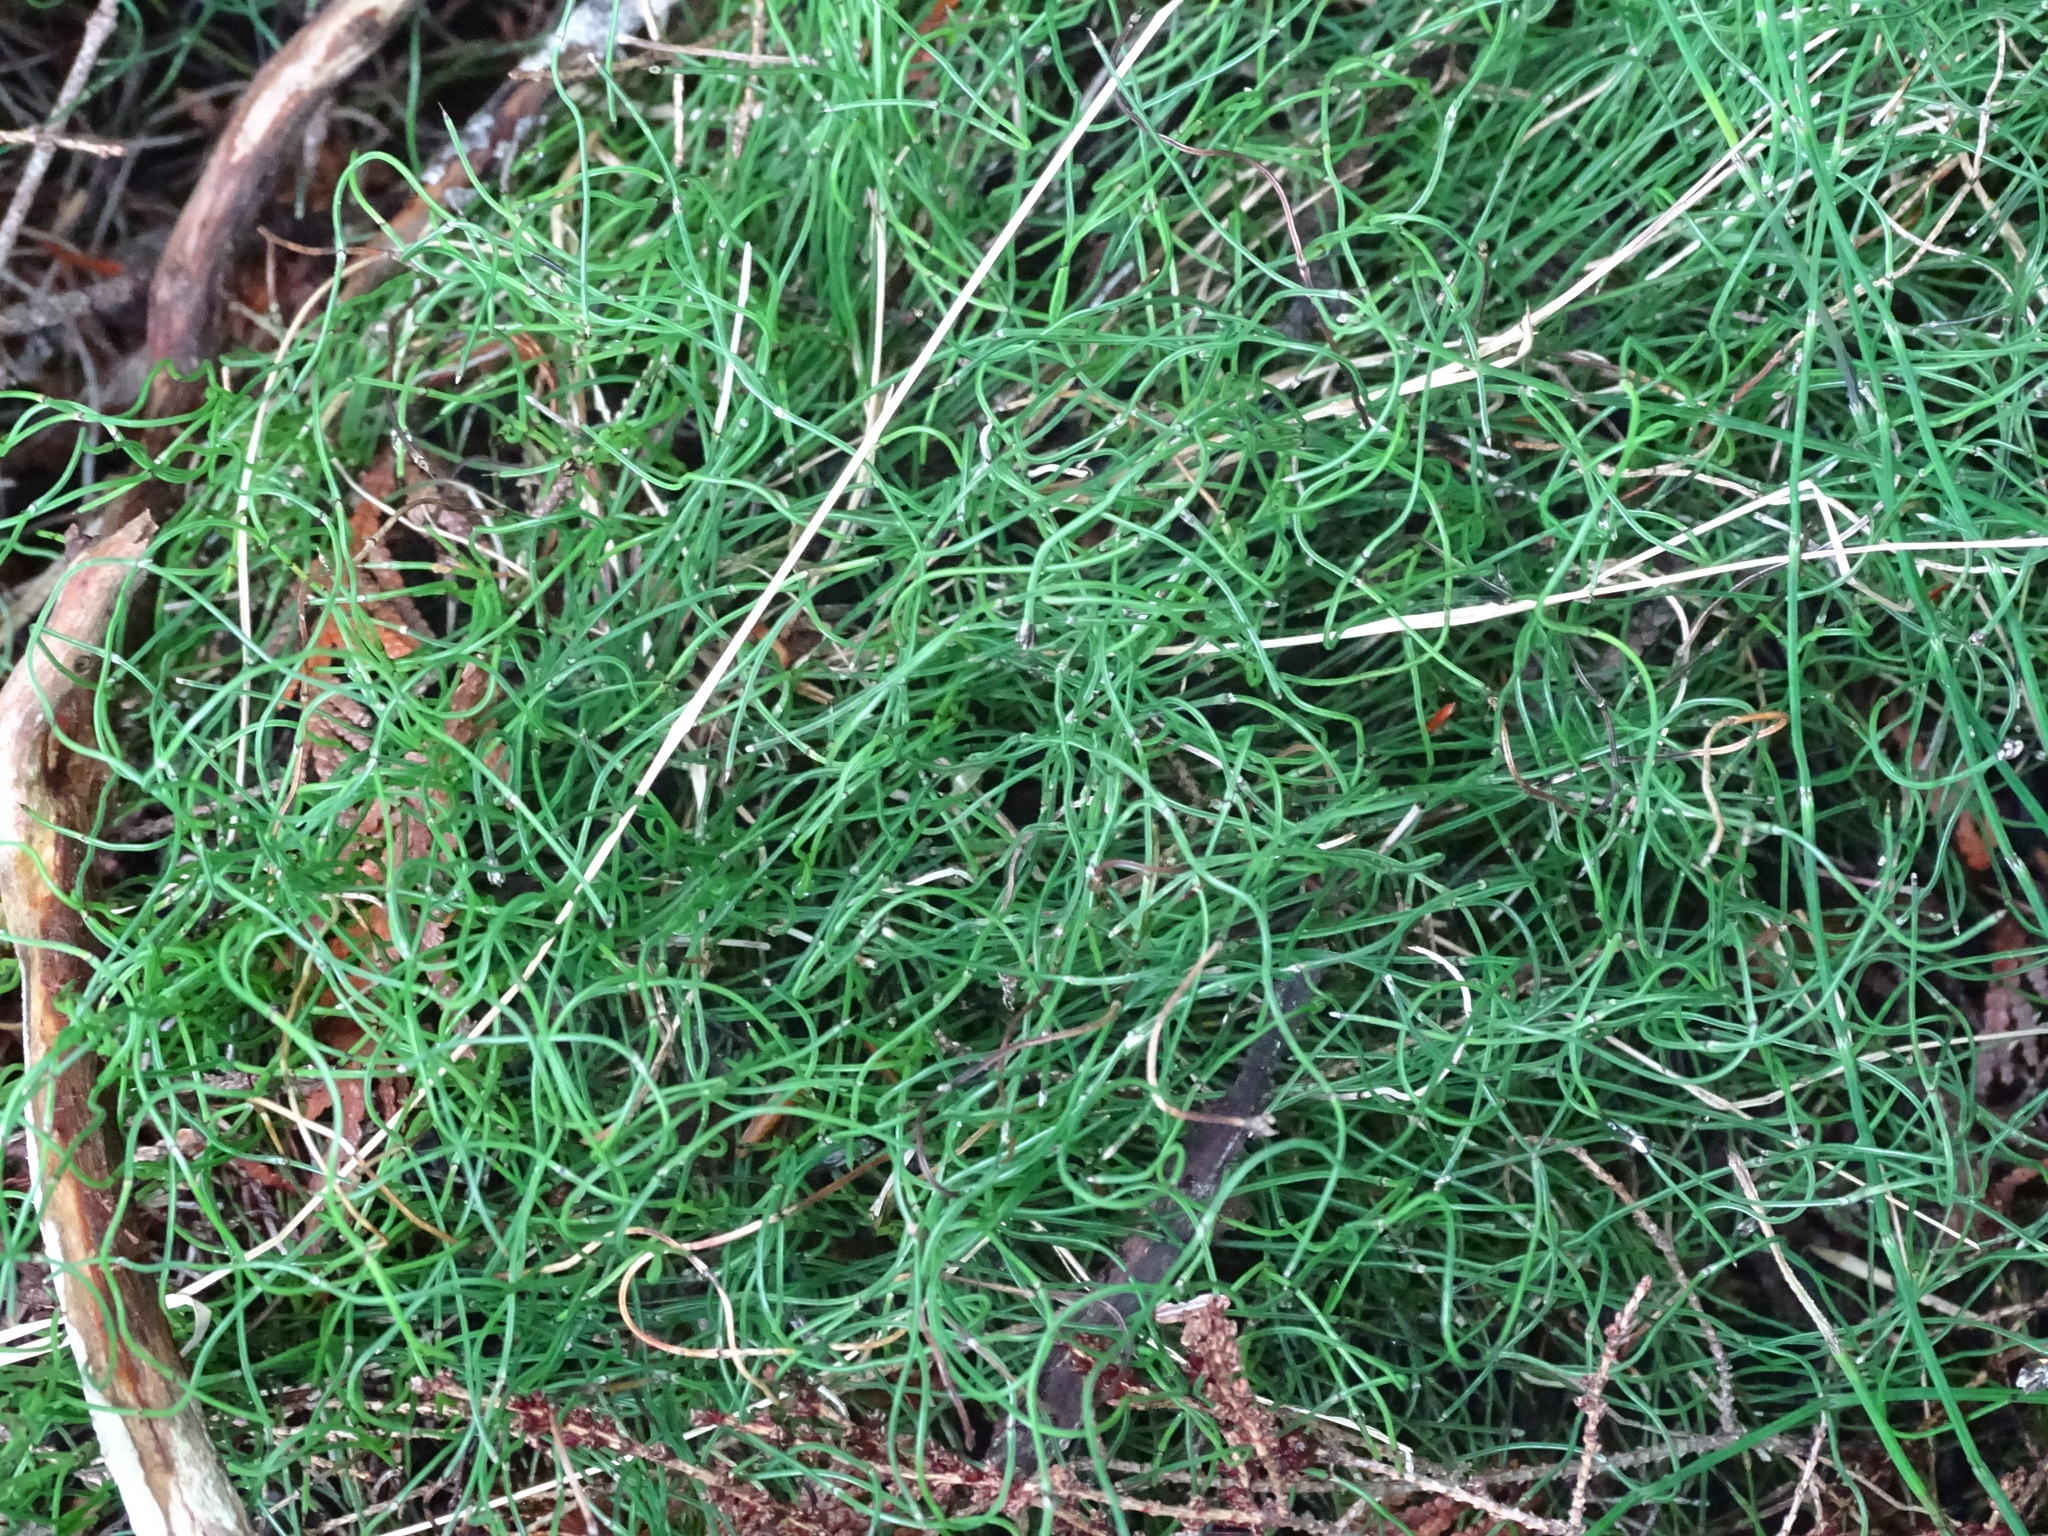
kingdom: Plantae
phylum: Tracheophyta
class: Polypodiopsida
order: Equisetales
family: Equisetaceae
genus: Equisetum
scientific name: Equisetum scirpoides
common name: Delicate horsetail
